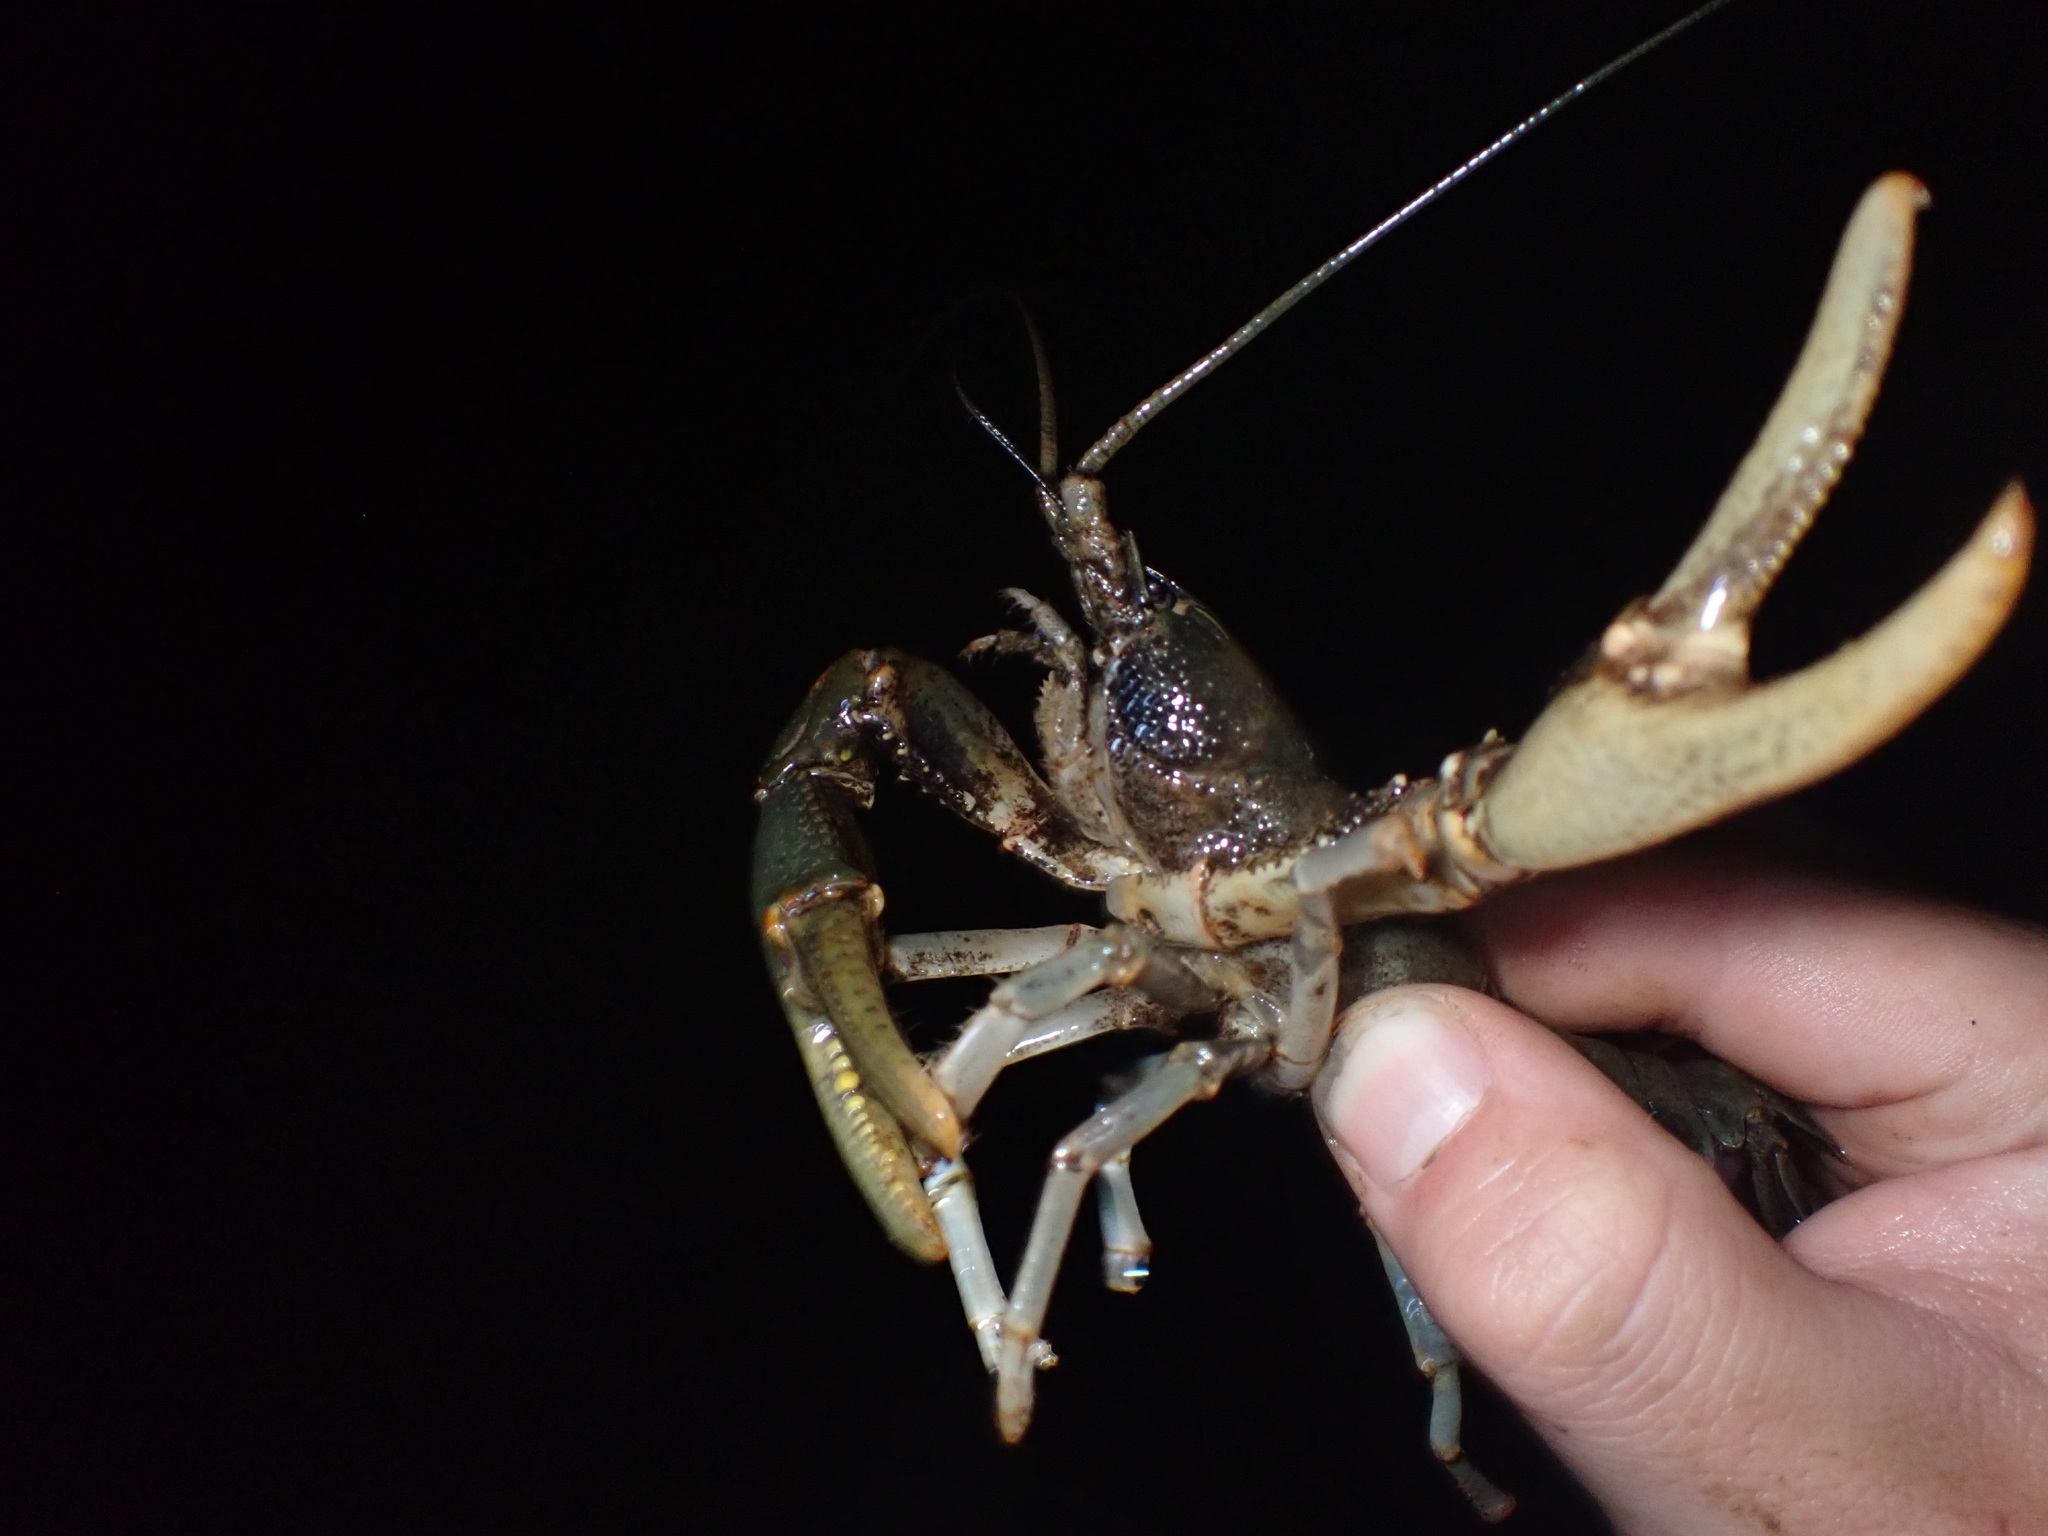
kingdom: Animalia
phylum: Arthropoda
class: Malacostraca
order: Decapoda
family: Cambaridae
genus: Cambarus
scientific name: Cambarus tenebrosus
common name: Cavespring crayfish
